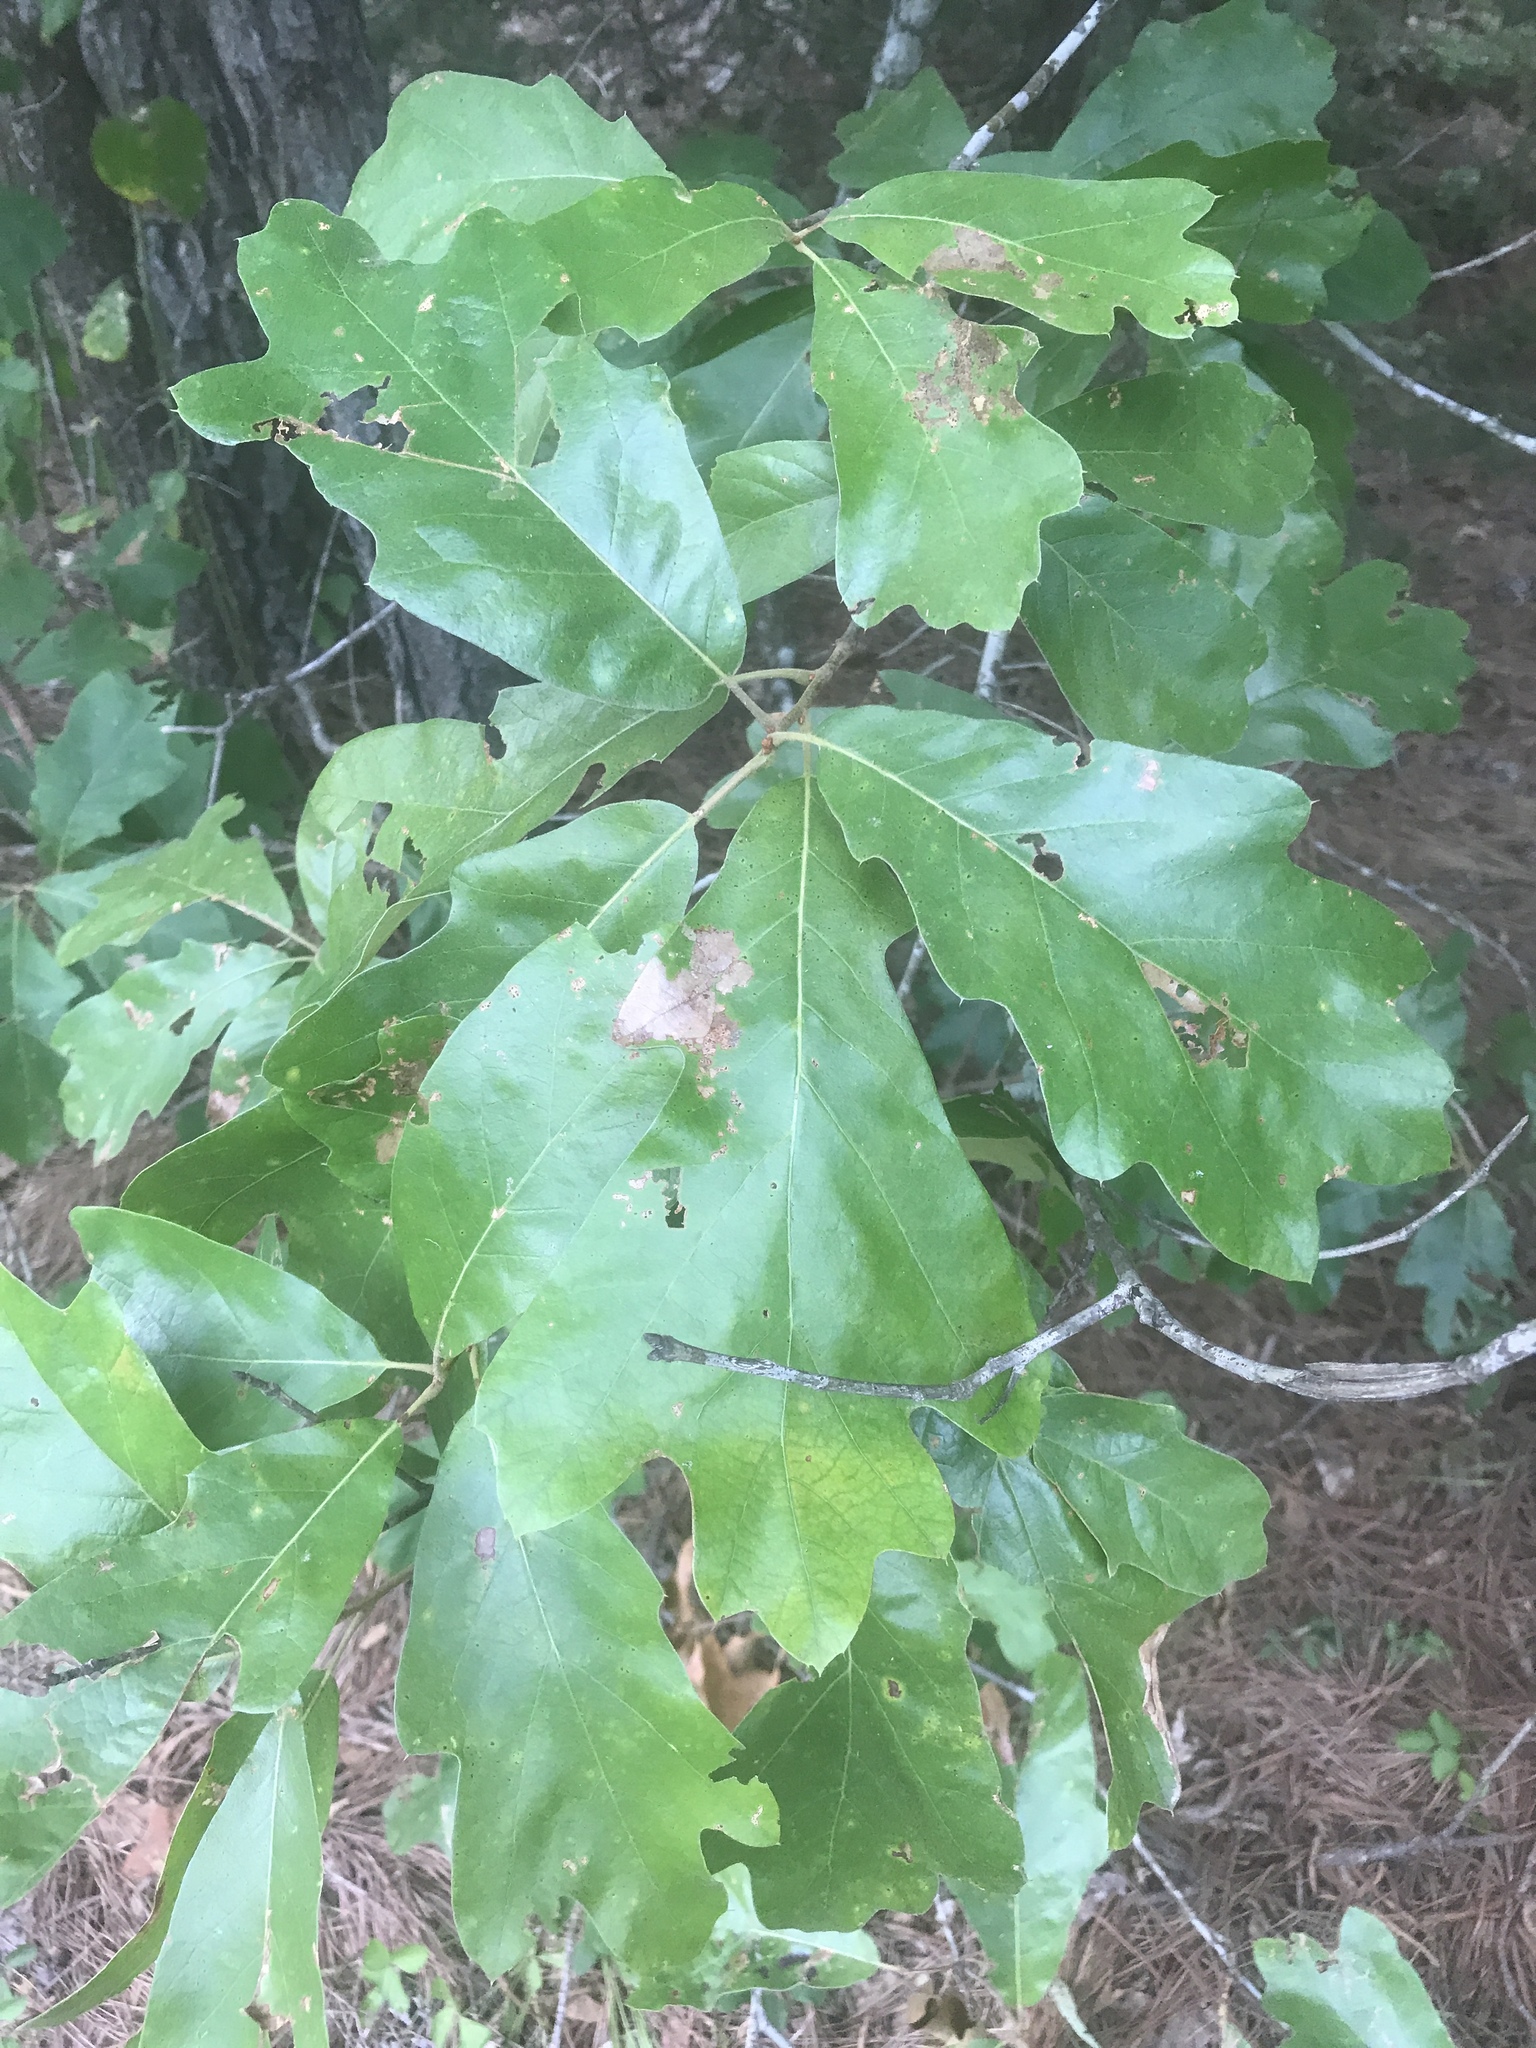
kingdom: Plantae
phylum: Tracheophyta
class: Magnoliopsida
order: Fagales
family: Fagaceae
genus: Quercus
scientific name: Quercus falcata
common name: Southern red oak
